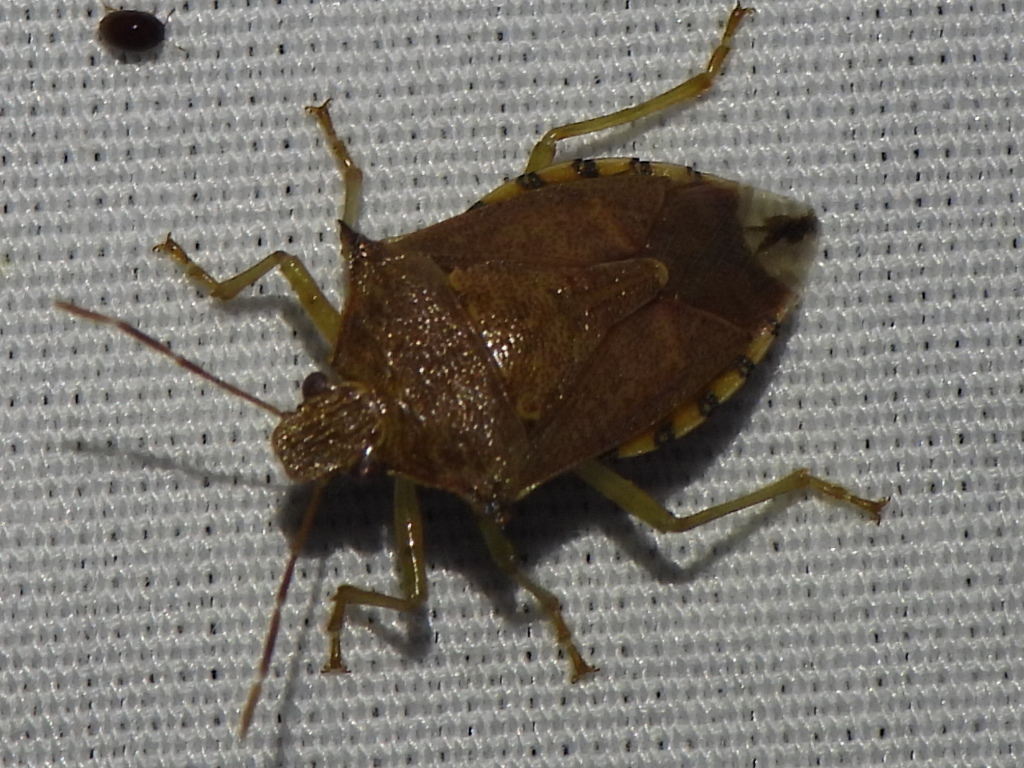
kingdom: Animalia
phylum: Arthropoda
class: Insecta
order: Hemiptera
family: Pentatomidae
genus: Podisus
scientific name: Podisus maculiventris
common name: Spined soldier bug
